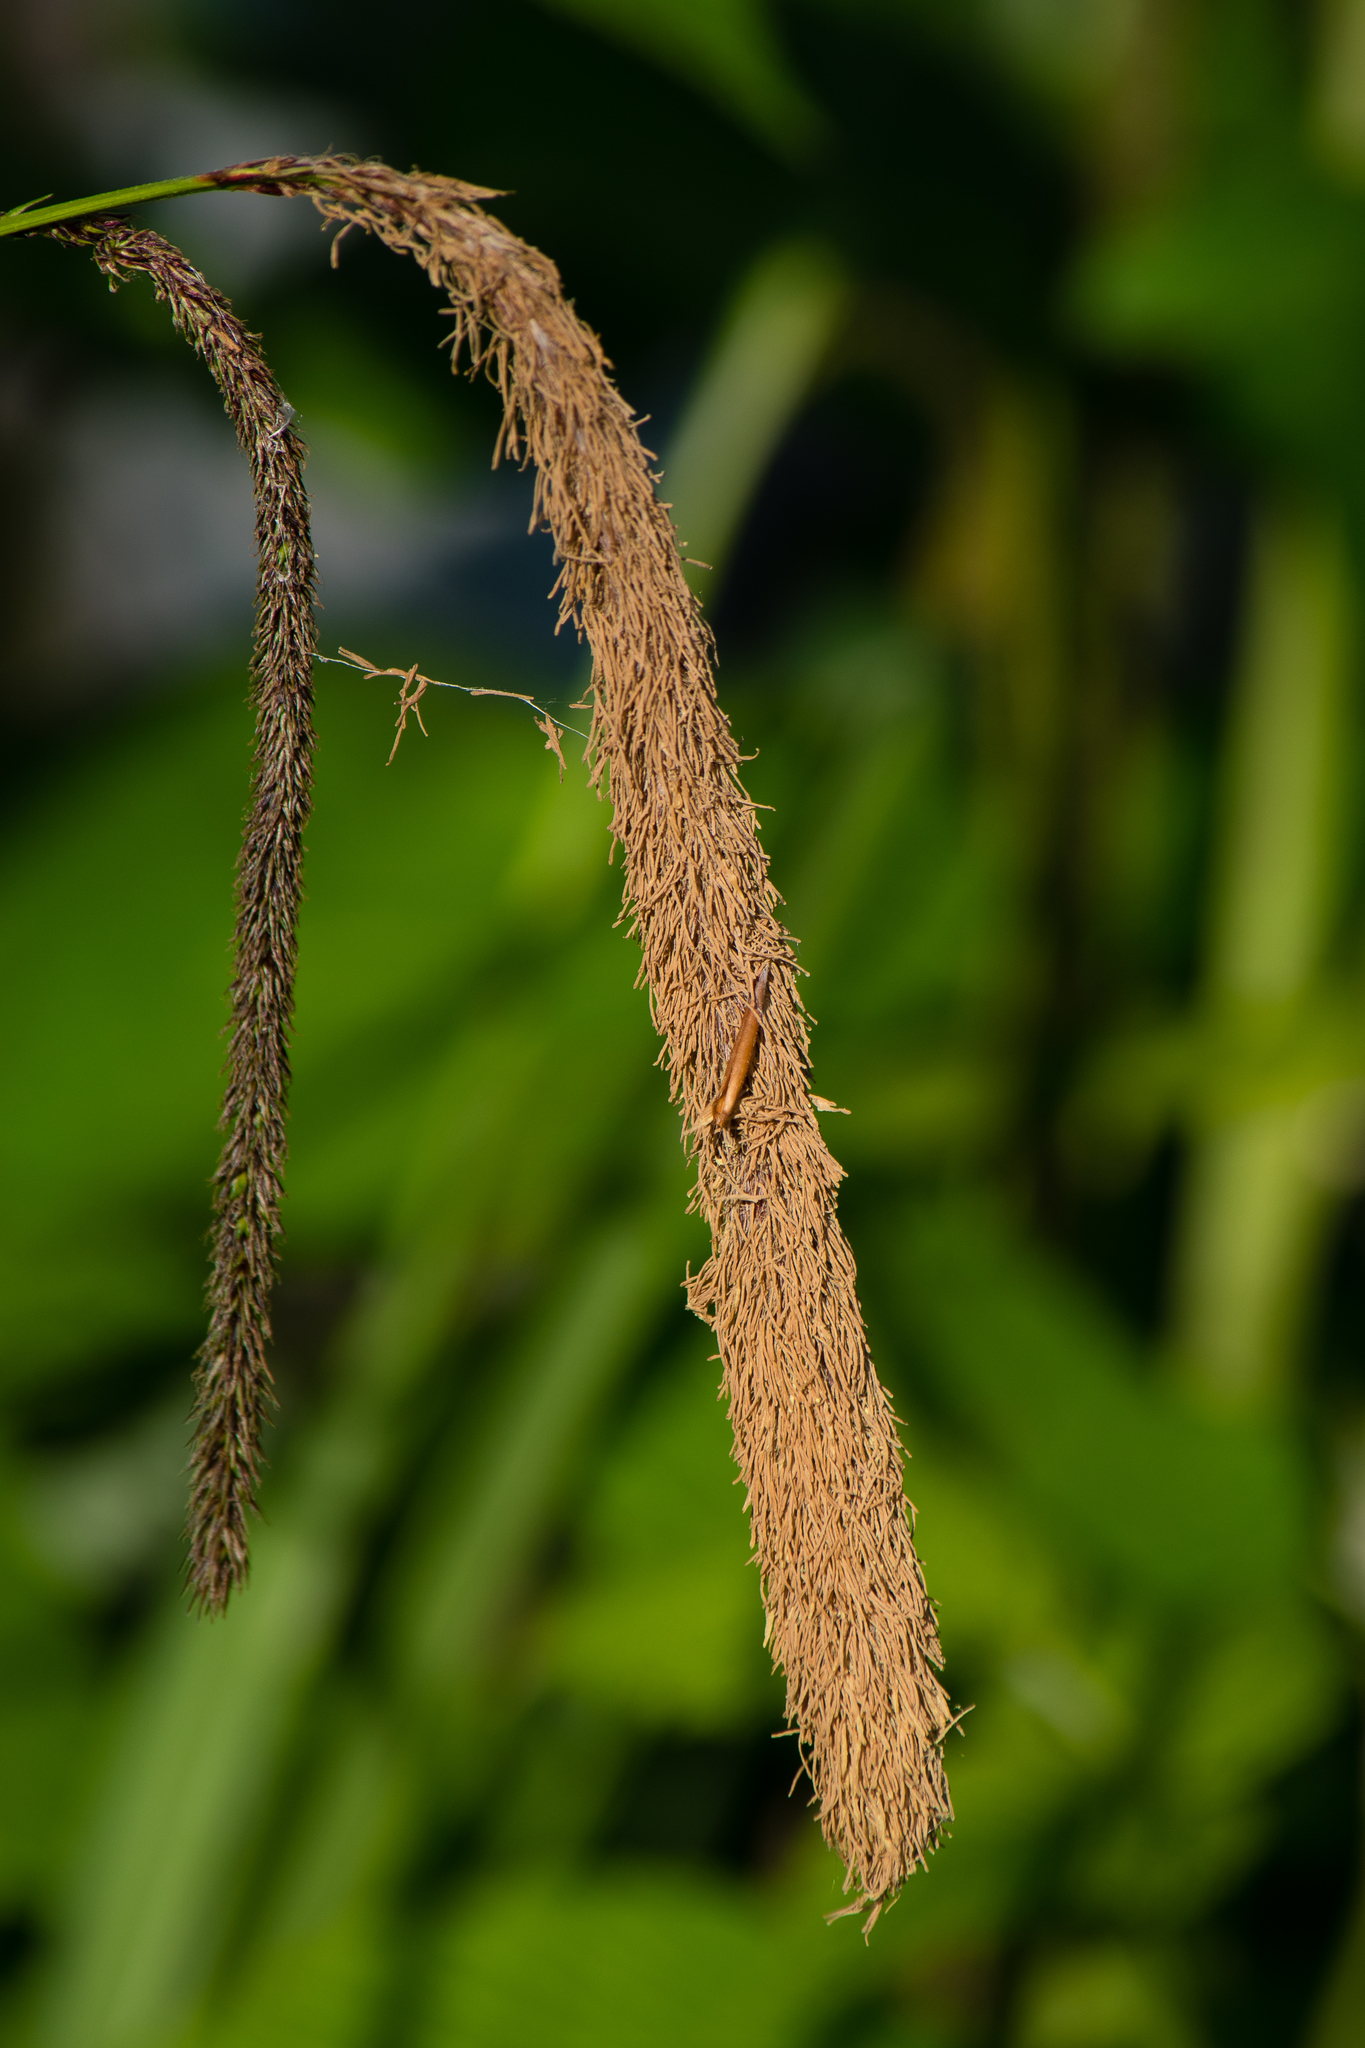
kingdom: Plantae
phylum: Tracheophyta
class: Liliopsida
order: Poales
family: Cyperaceae
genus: Carex
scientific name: Carex pendula
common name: Pendulous sedge
